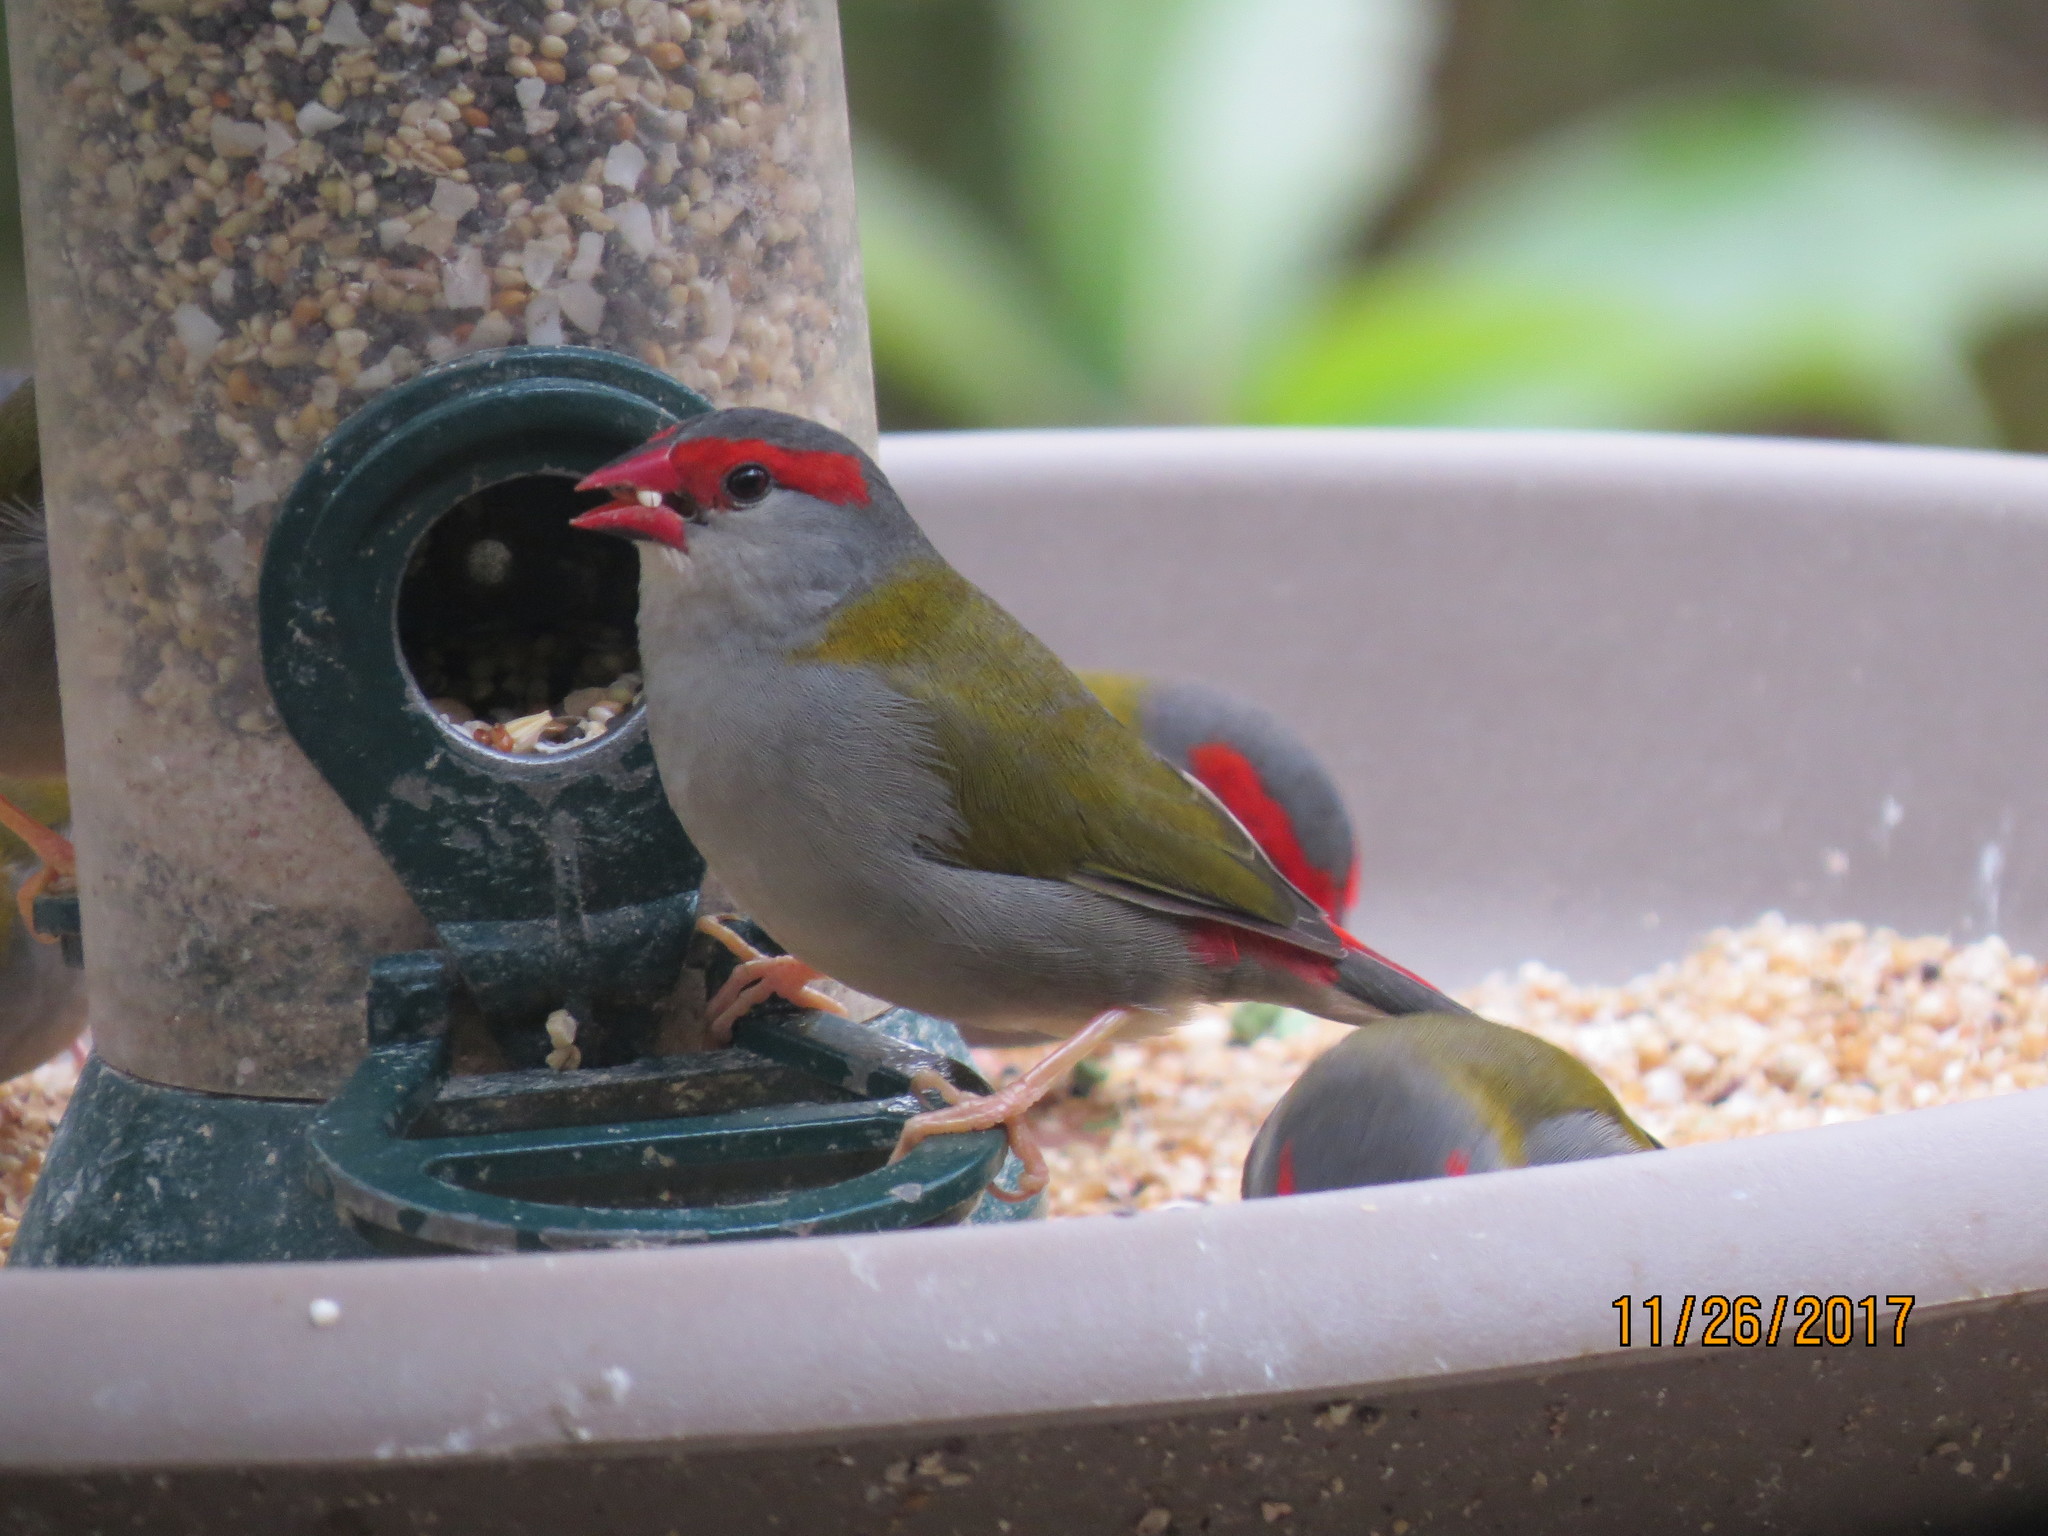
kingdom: Animalia
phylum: Chordata
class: Aves
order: Passeriformes
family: Estrildidae
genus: Neochmia
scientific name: Neochmia temporalis
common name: Red-browed finch
